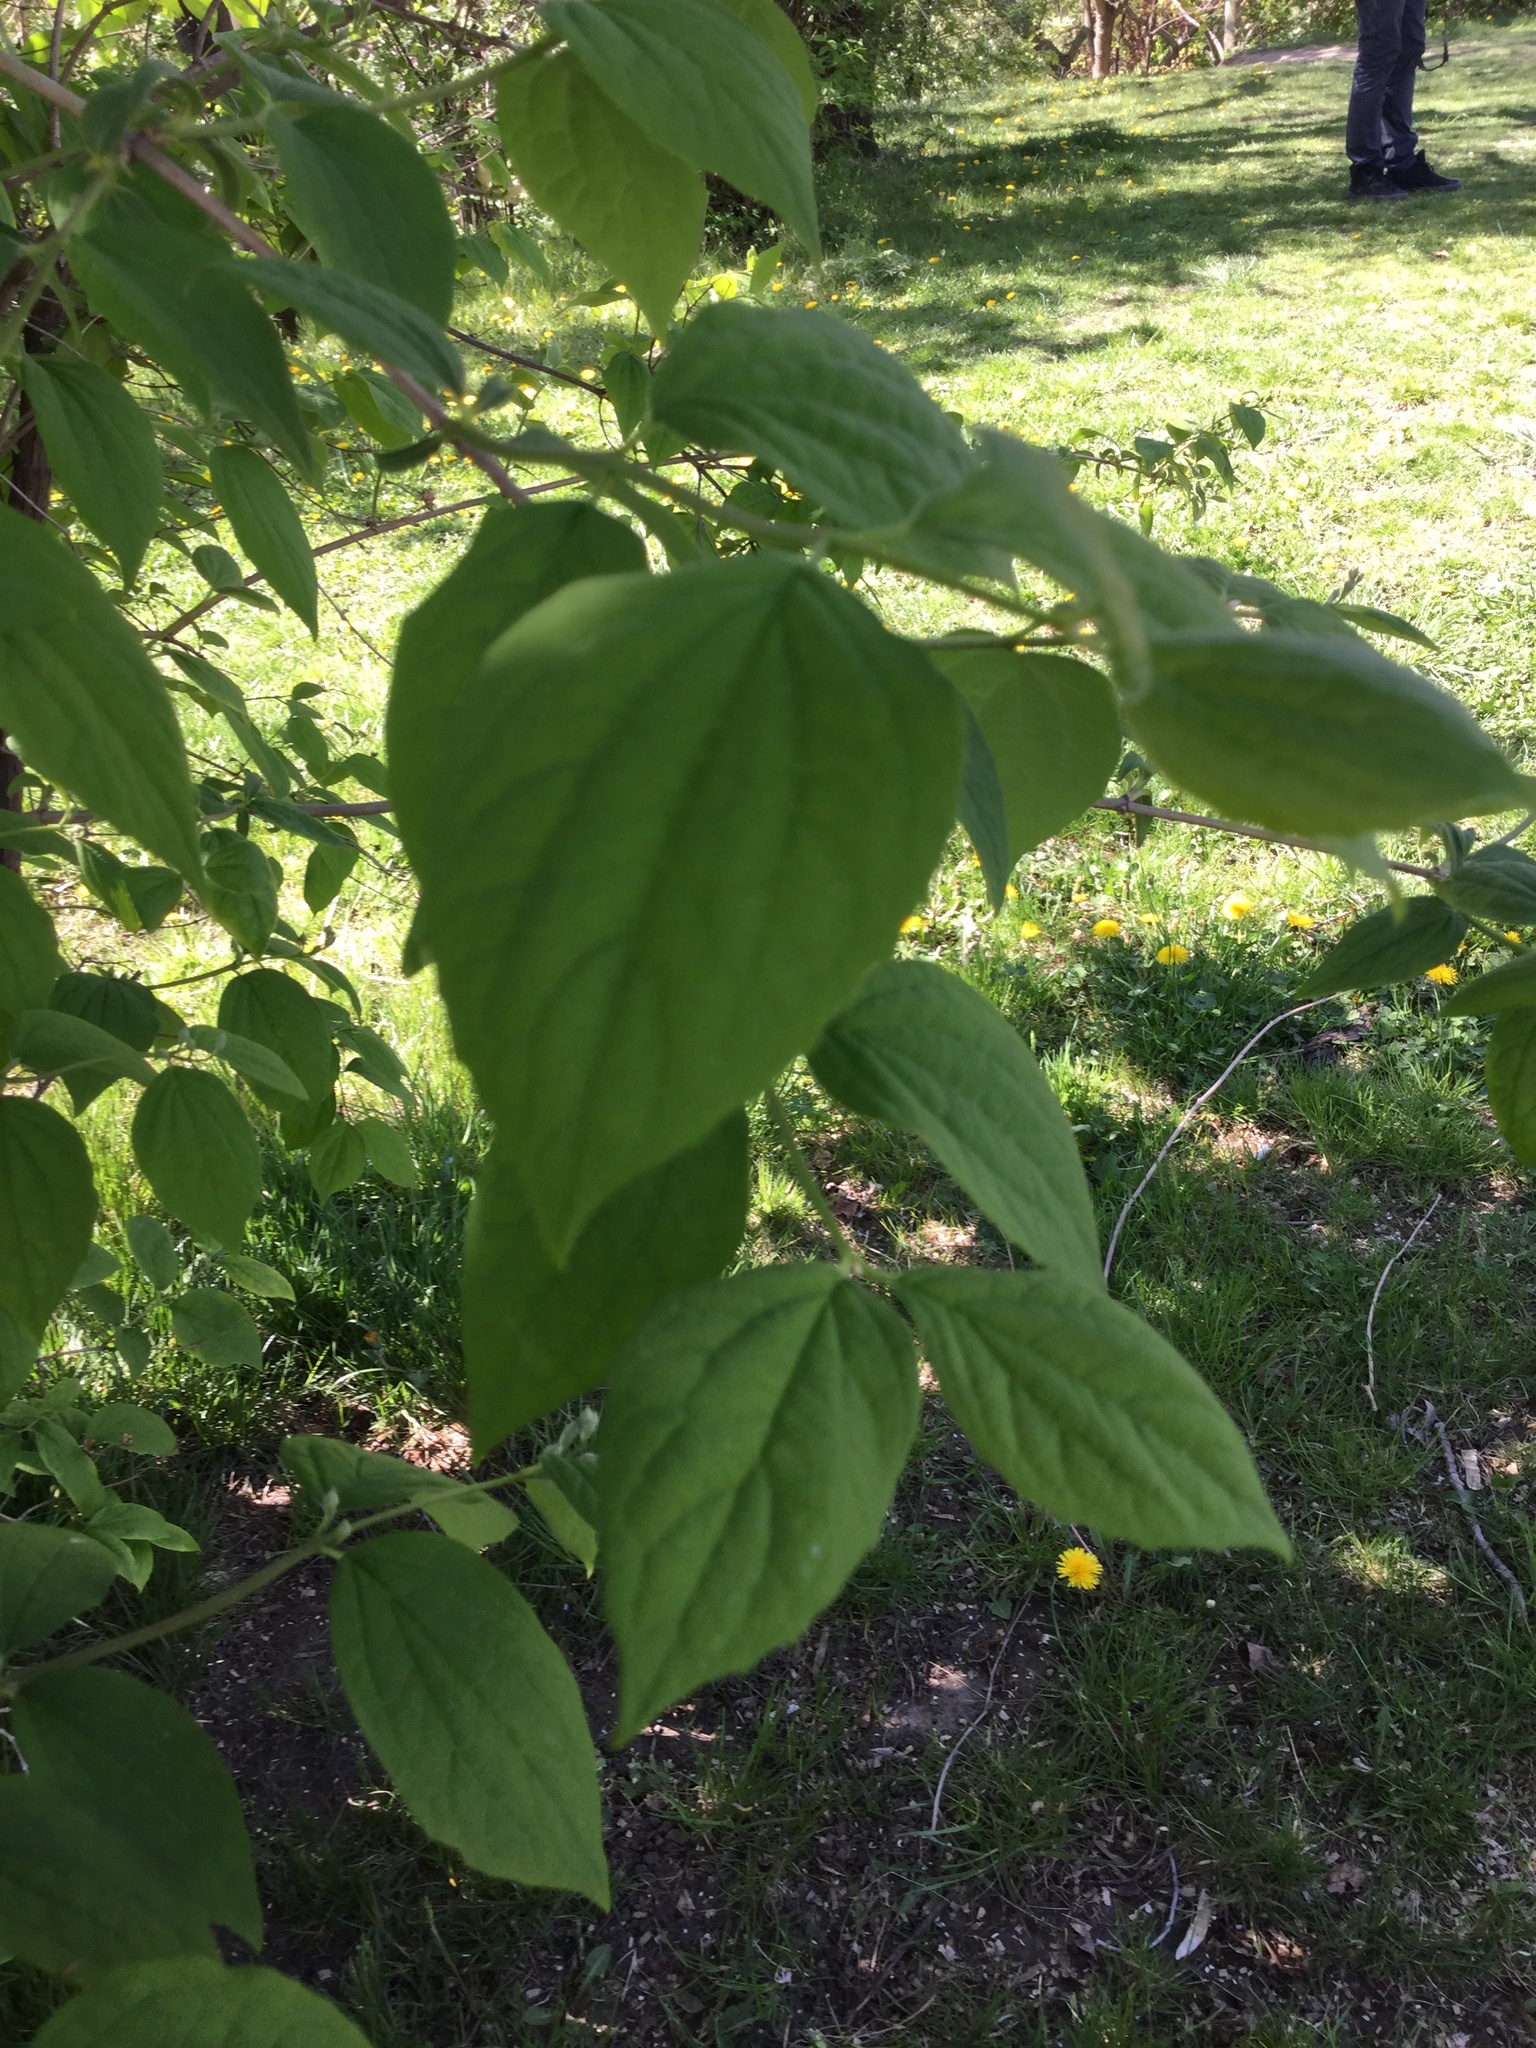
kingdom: Plantae
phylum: Tracheophyta
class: Magnoliopsida
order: Cornales
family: Hydrangeaceae
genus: Philadelphus
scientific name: Philadelphus coronarius
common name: Mock orange
